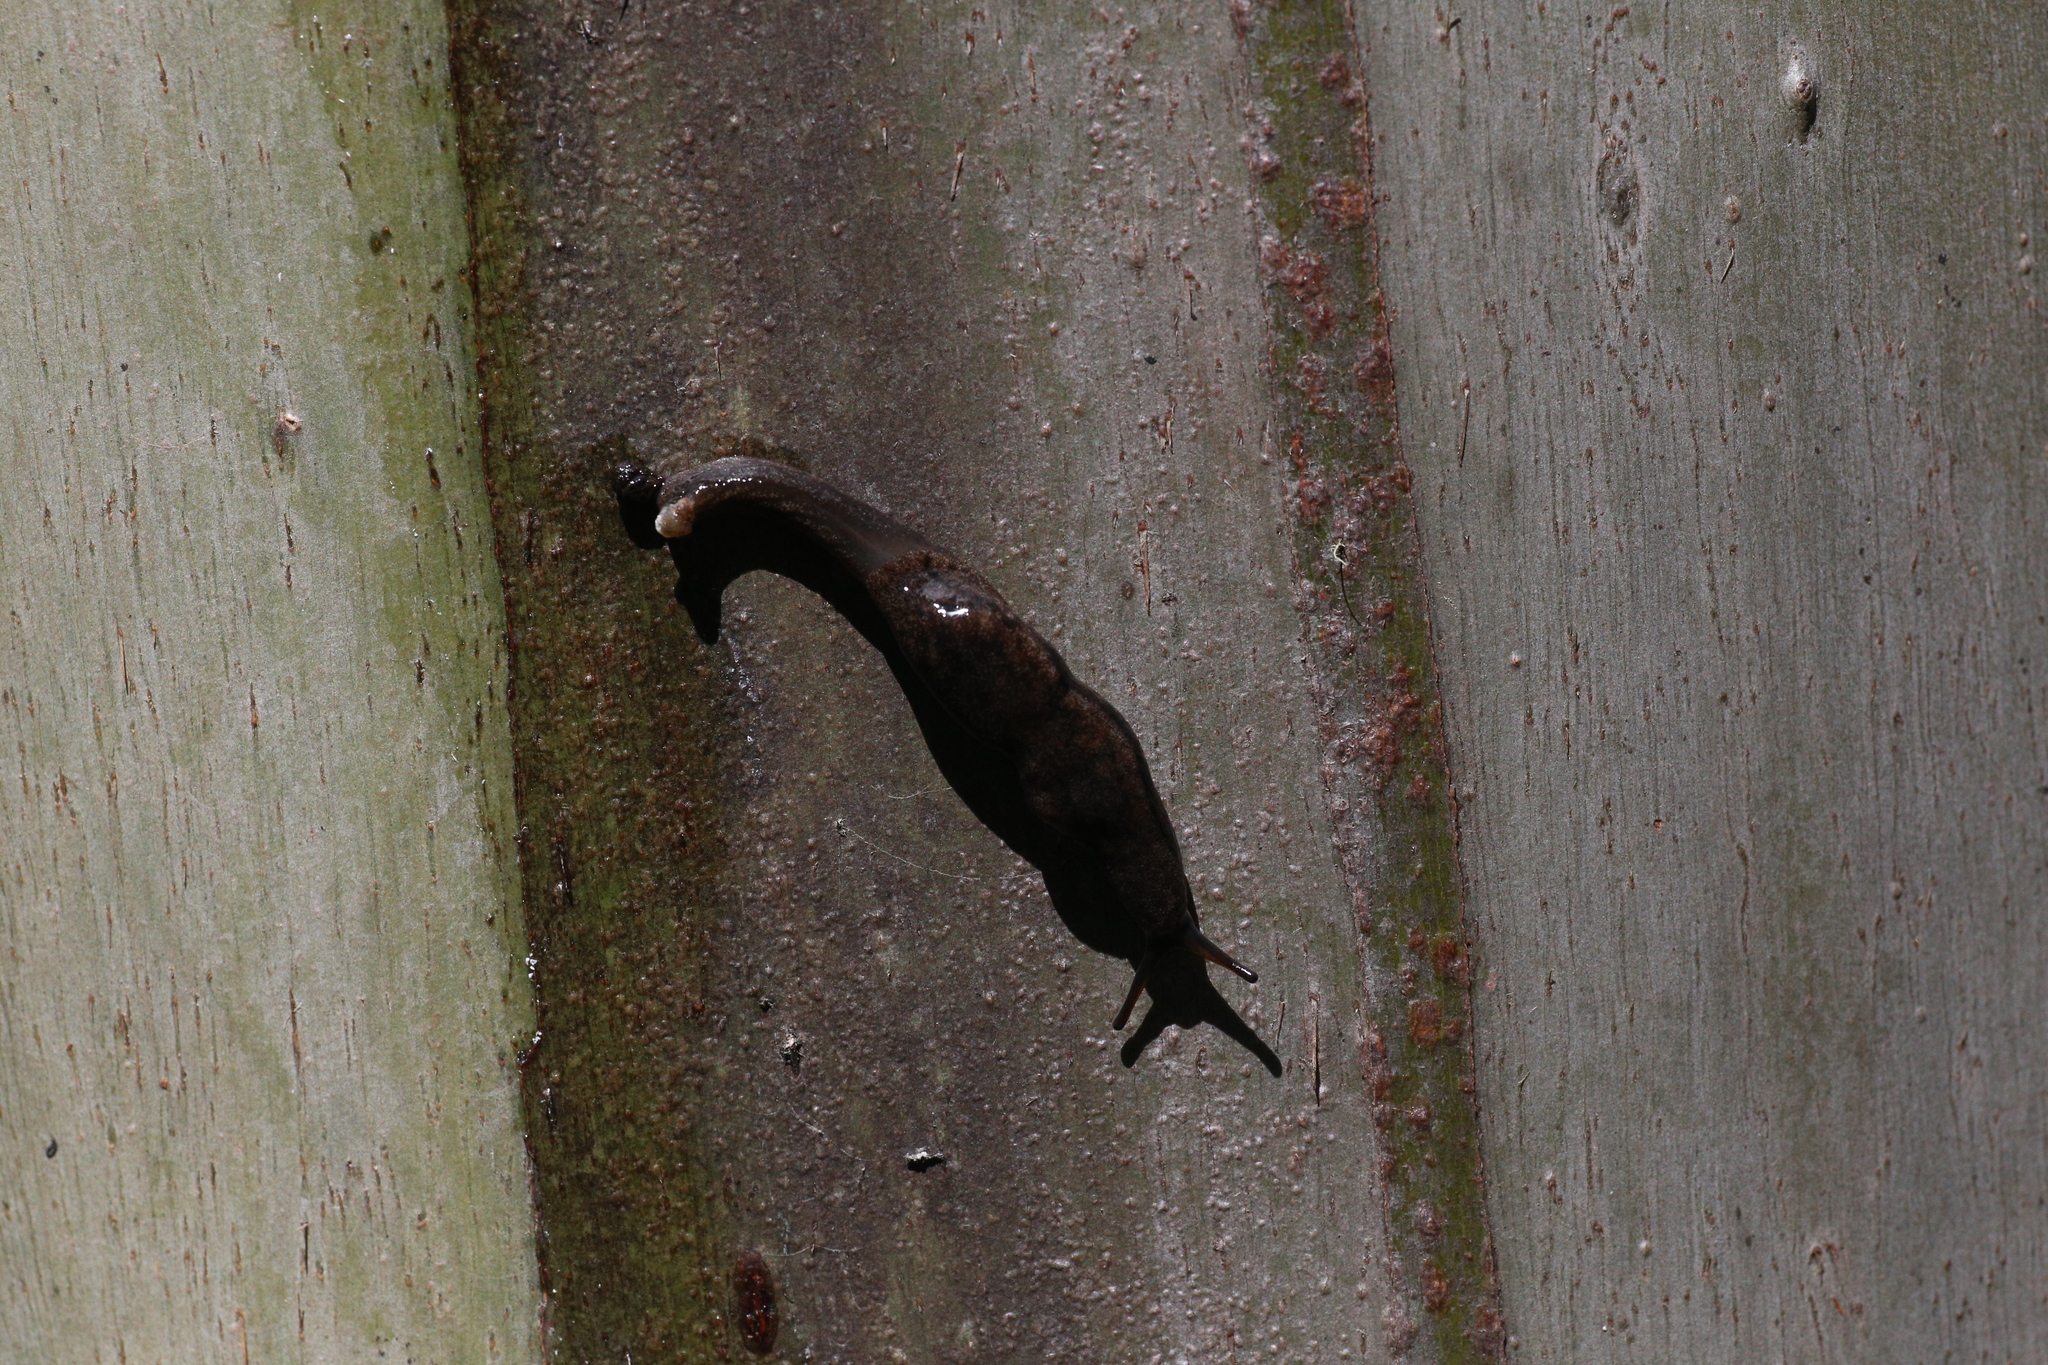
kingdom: Animalia
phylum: Mollusca
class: Gastropoda
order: Stylommatophora
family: Cystopeltidae
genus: Cystopelta
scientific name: Cystopelta purpurea
